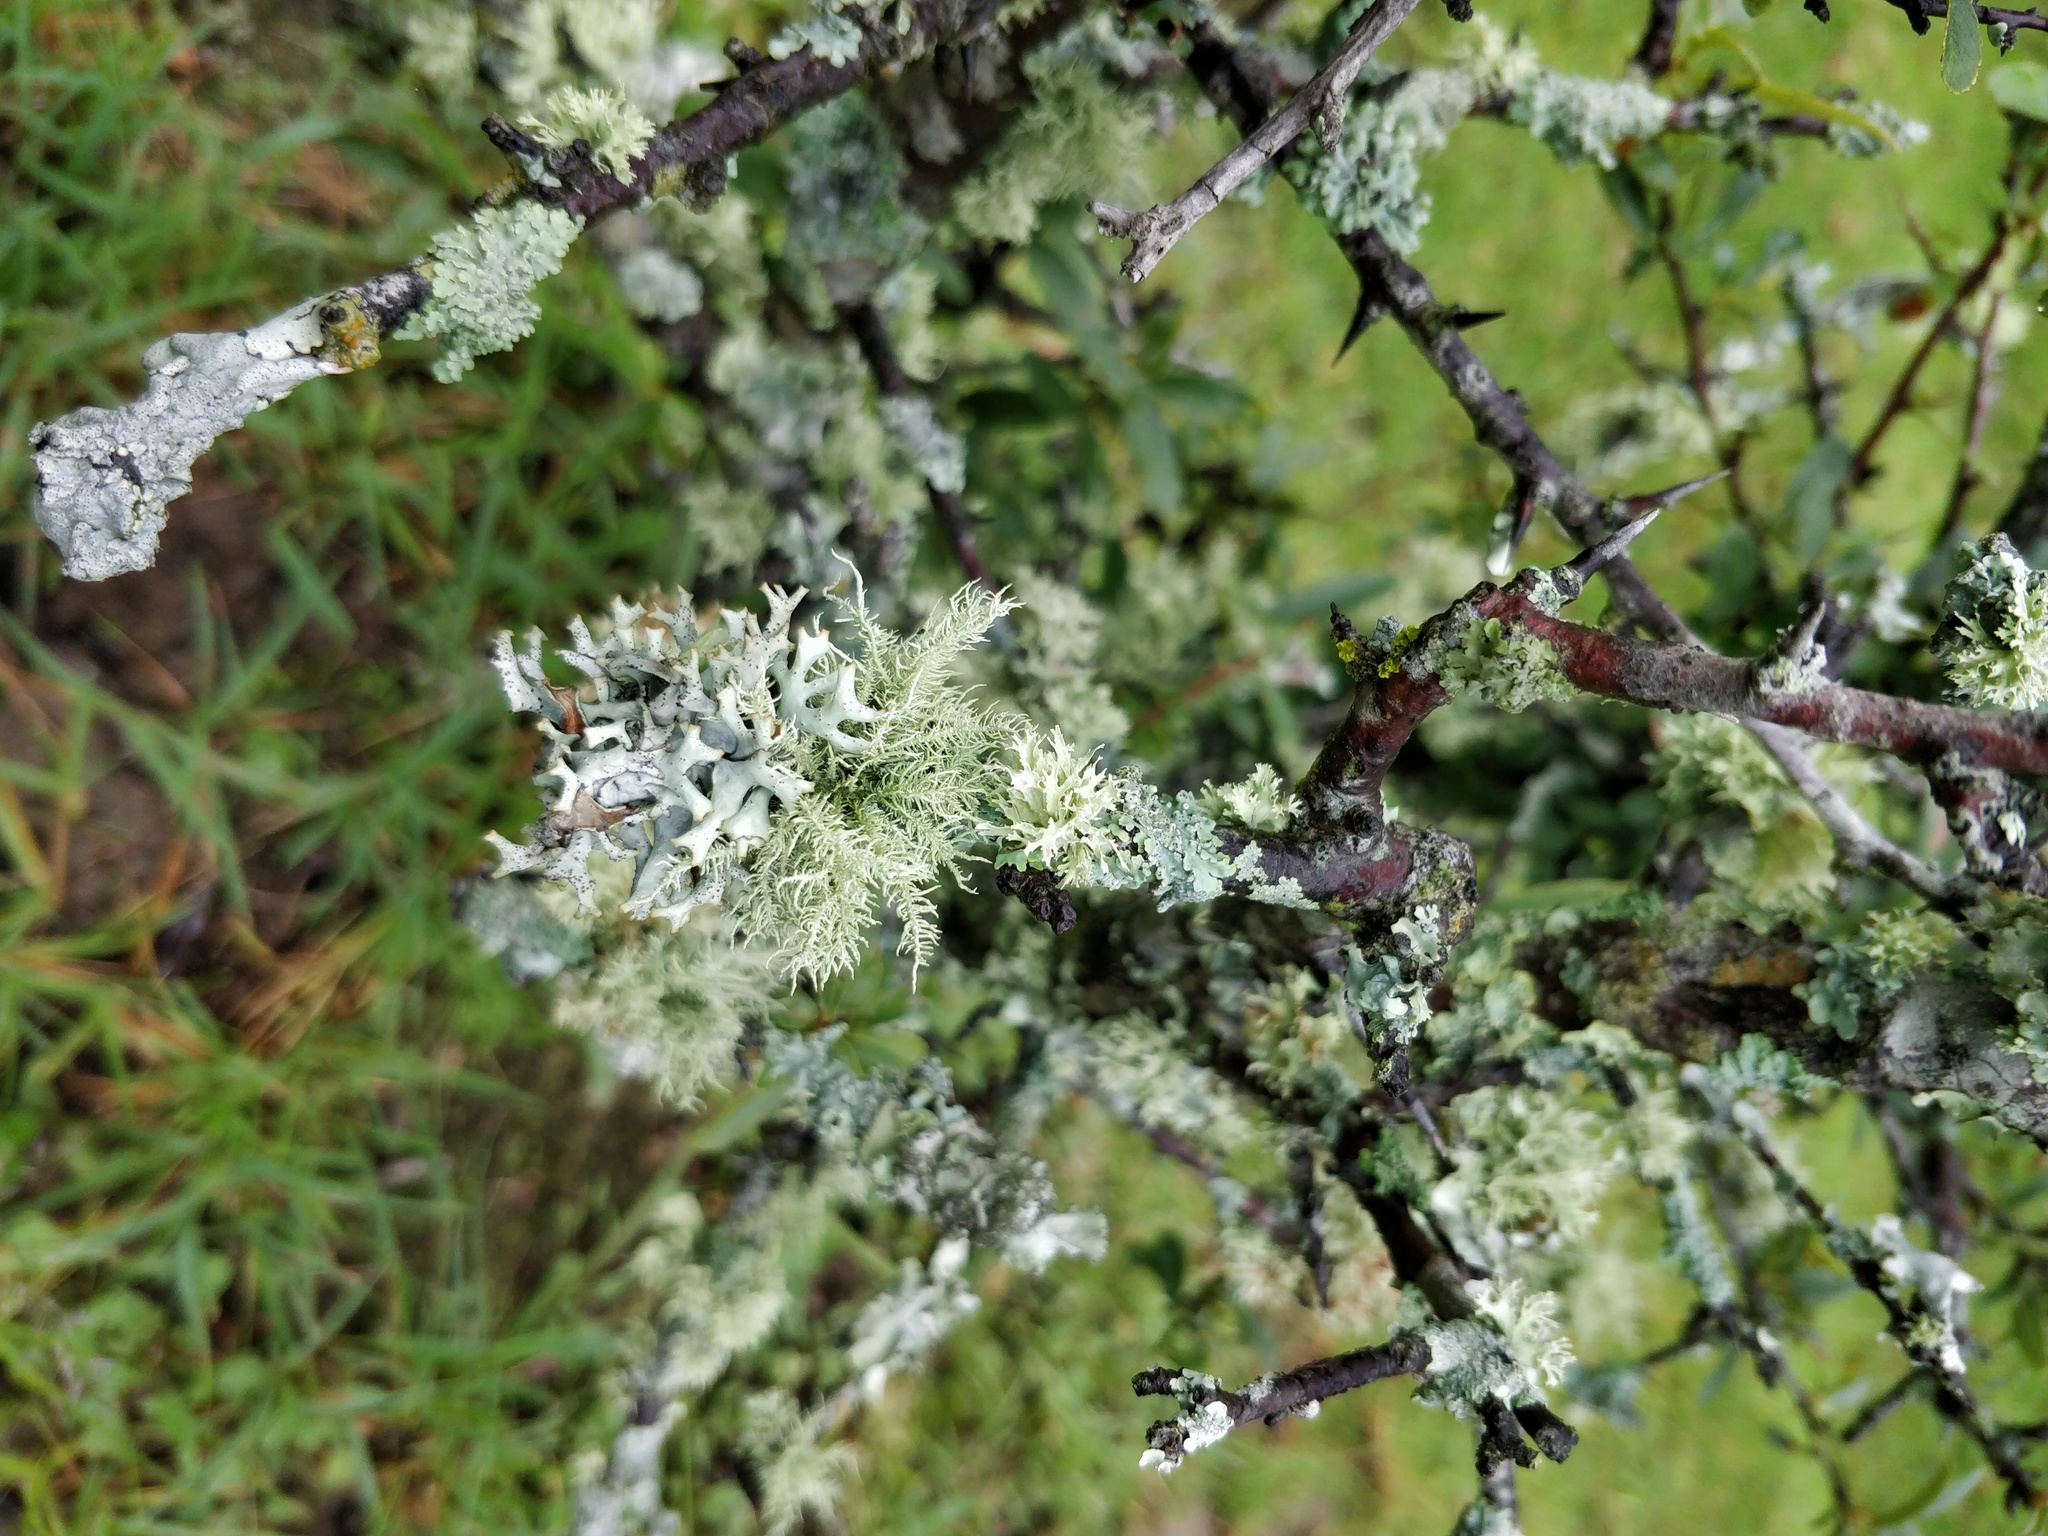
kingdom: Fungi
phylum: Ascomycota
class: Lecanoromycetes
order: Lecanorales
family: Parmeliaceae
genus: Evernia
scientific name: Evernia prunastri
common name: Oak moss
